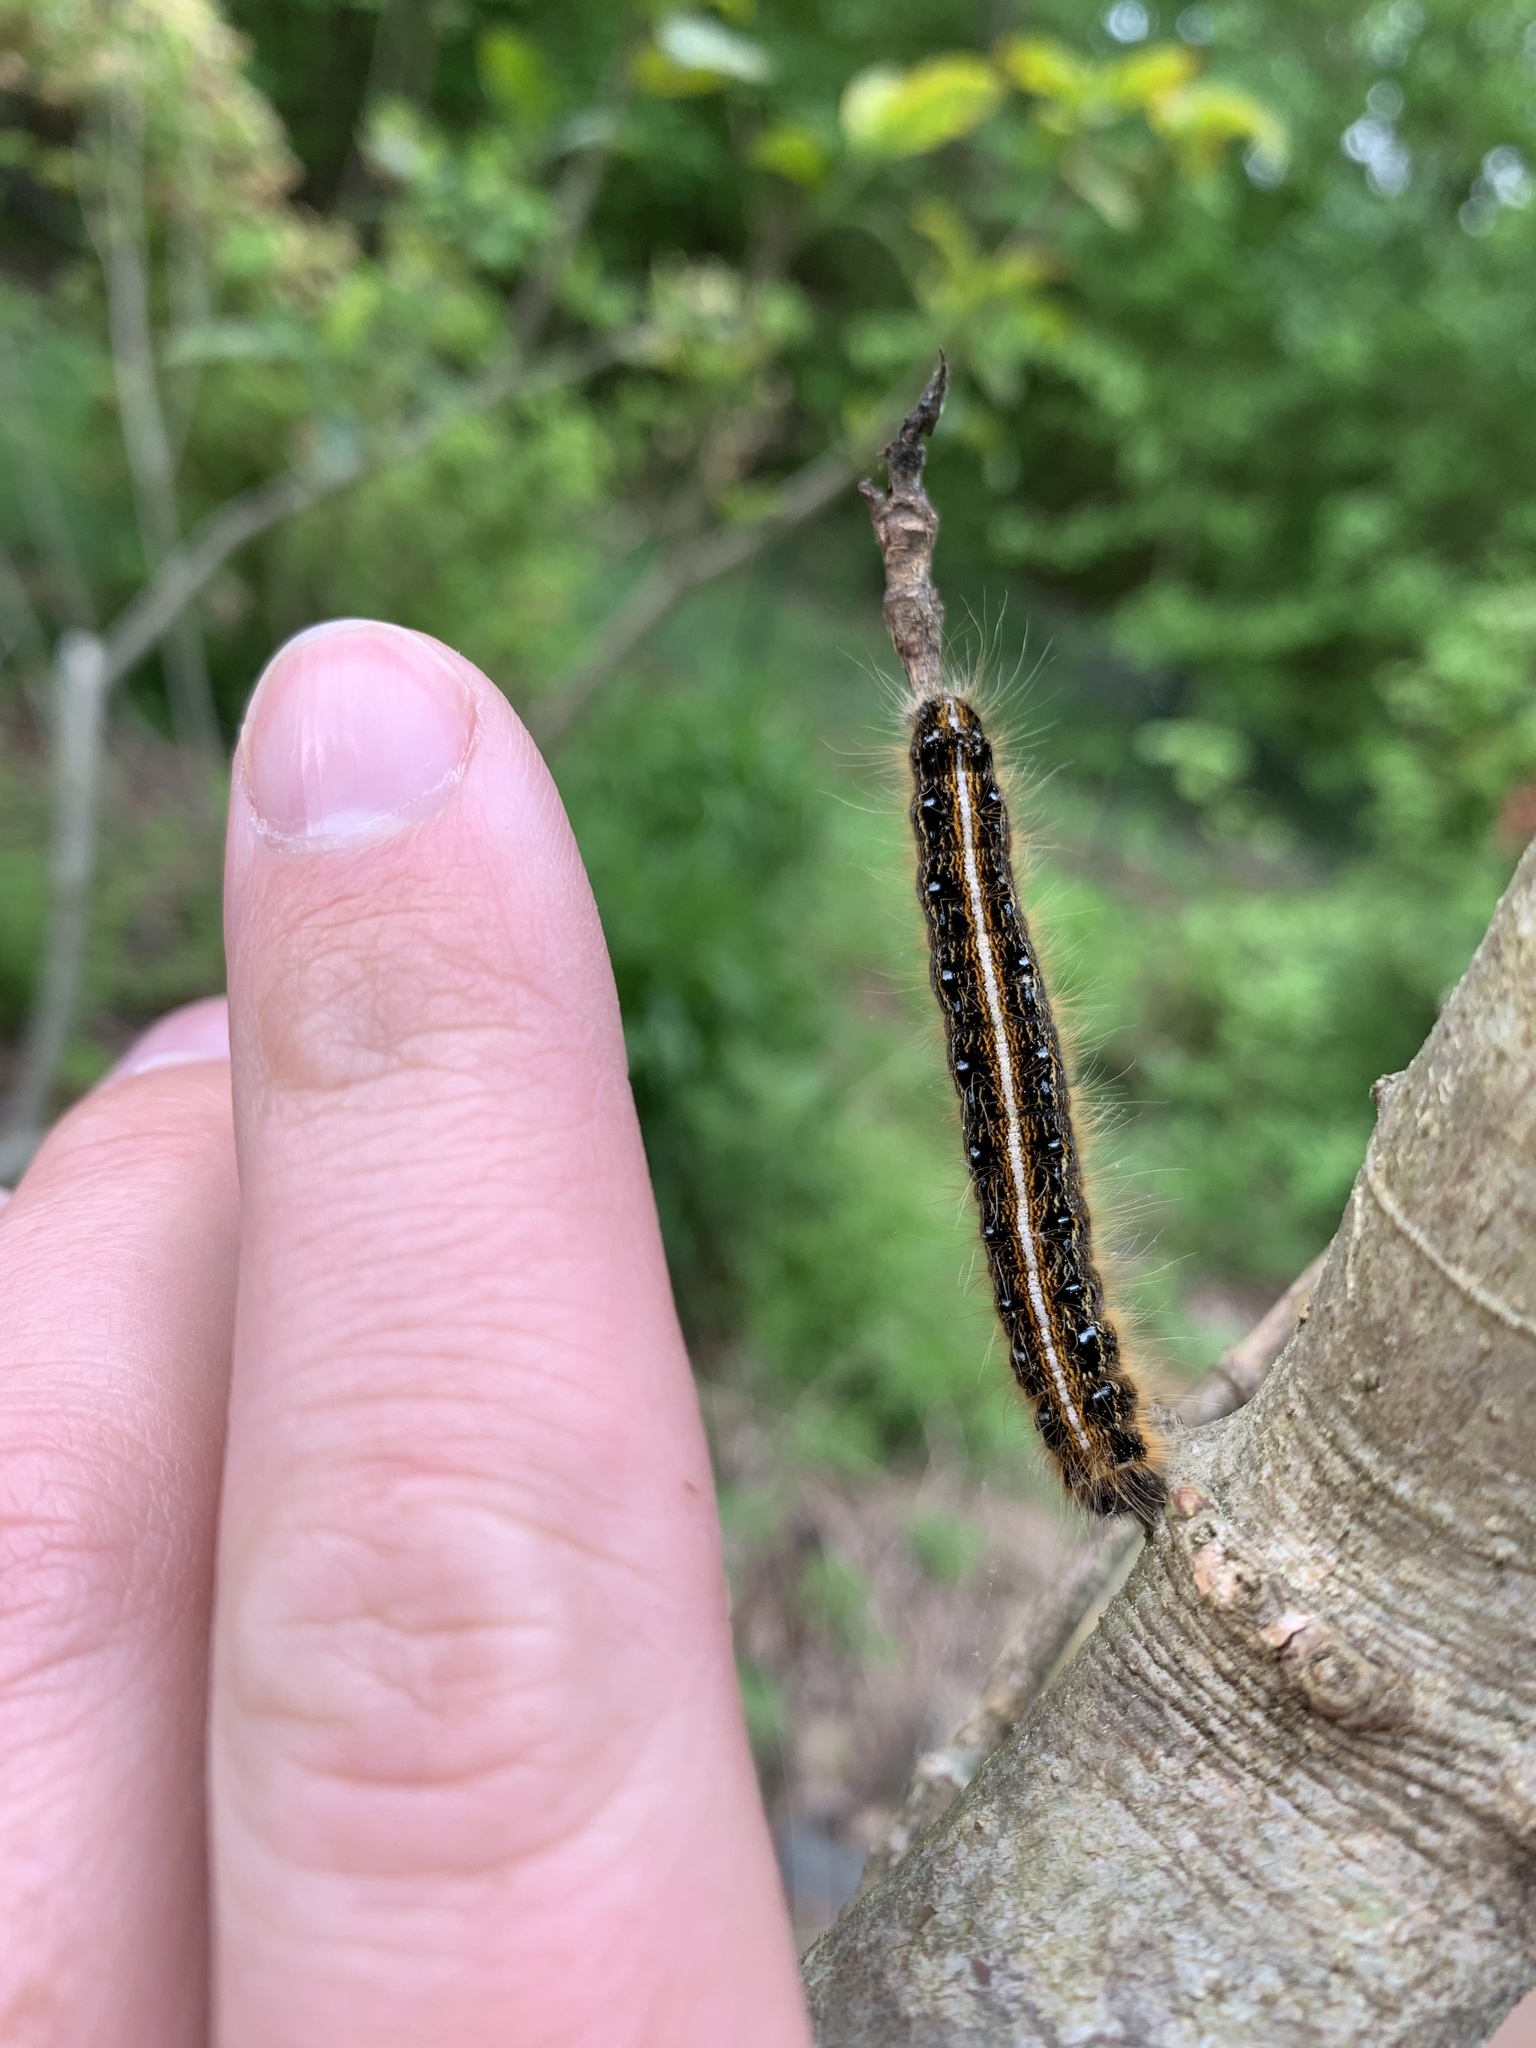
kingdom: Animalia
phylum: Arthropoda
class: Insecta
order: Lepidoptera
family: Lasiocampidae
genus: Malacosoma
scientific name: Malacosoma americana
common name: Eastern tent caterpillar moth
